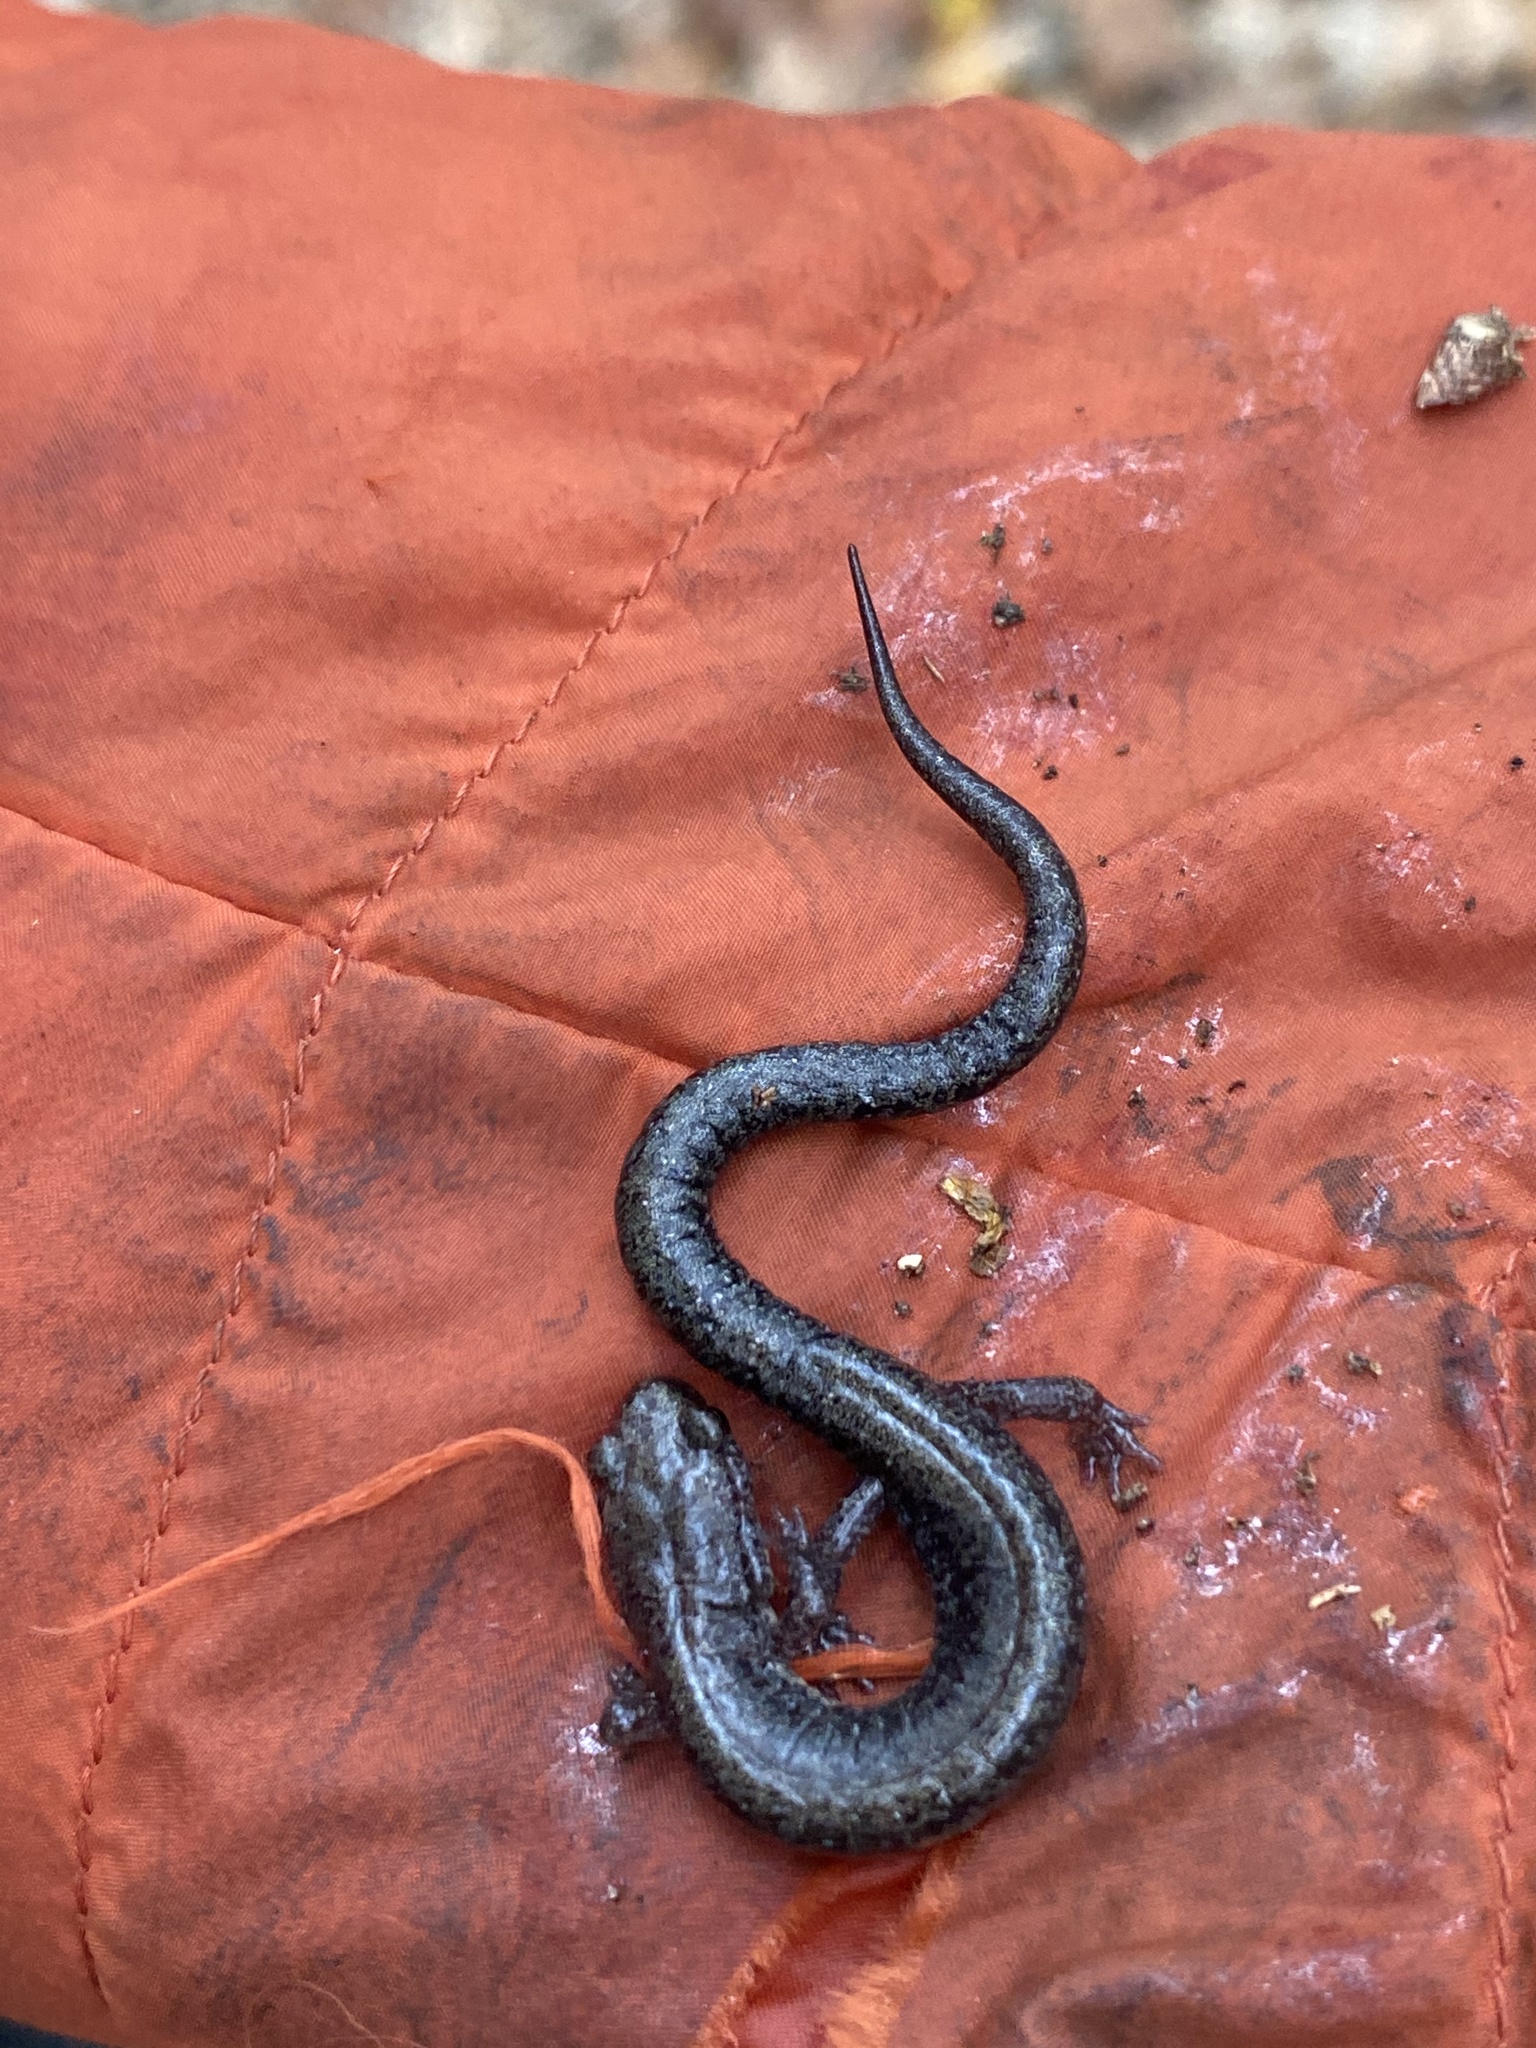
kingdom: Animalia
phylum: Chordata
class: Amphibia
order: Caudata
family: Plethodontidae
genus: Plethodon
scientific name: Plethodon cinereus
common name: Redback salamander
